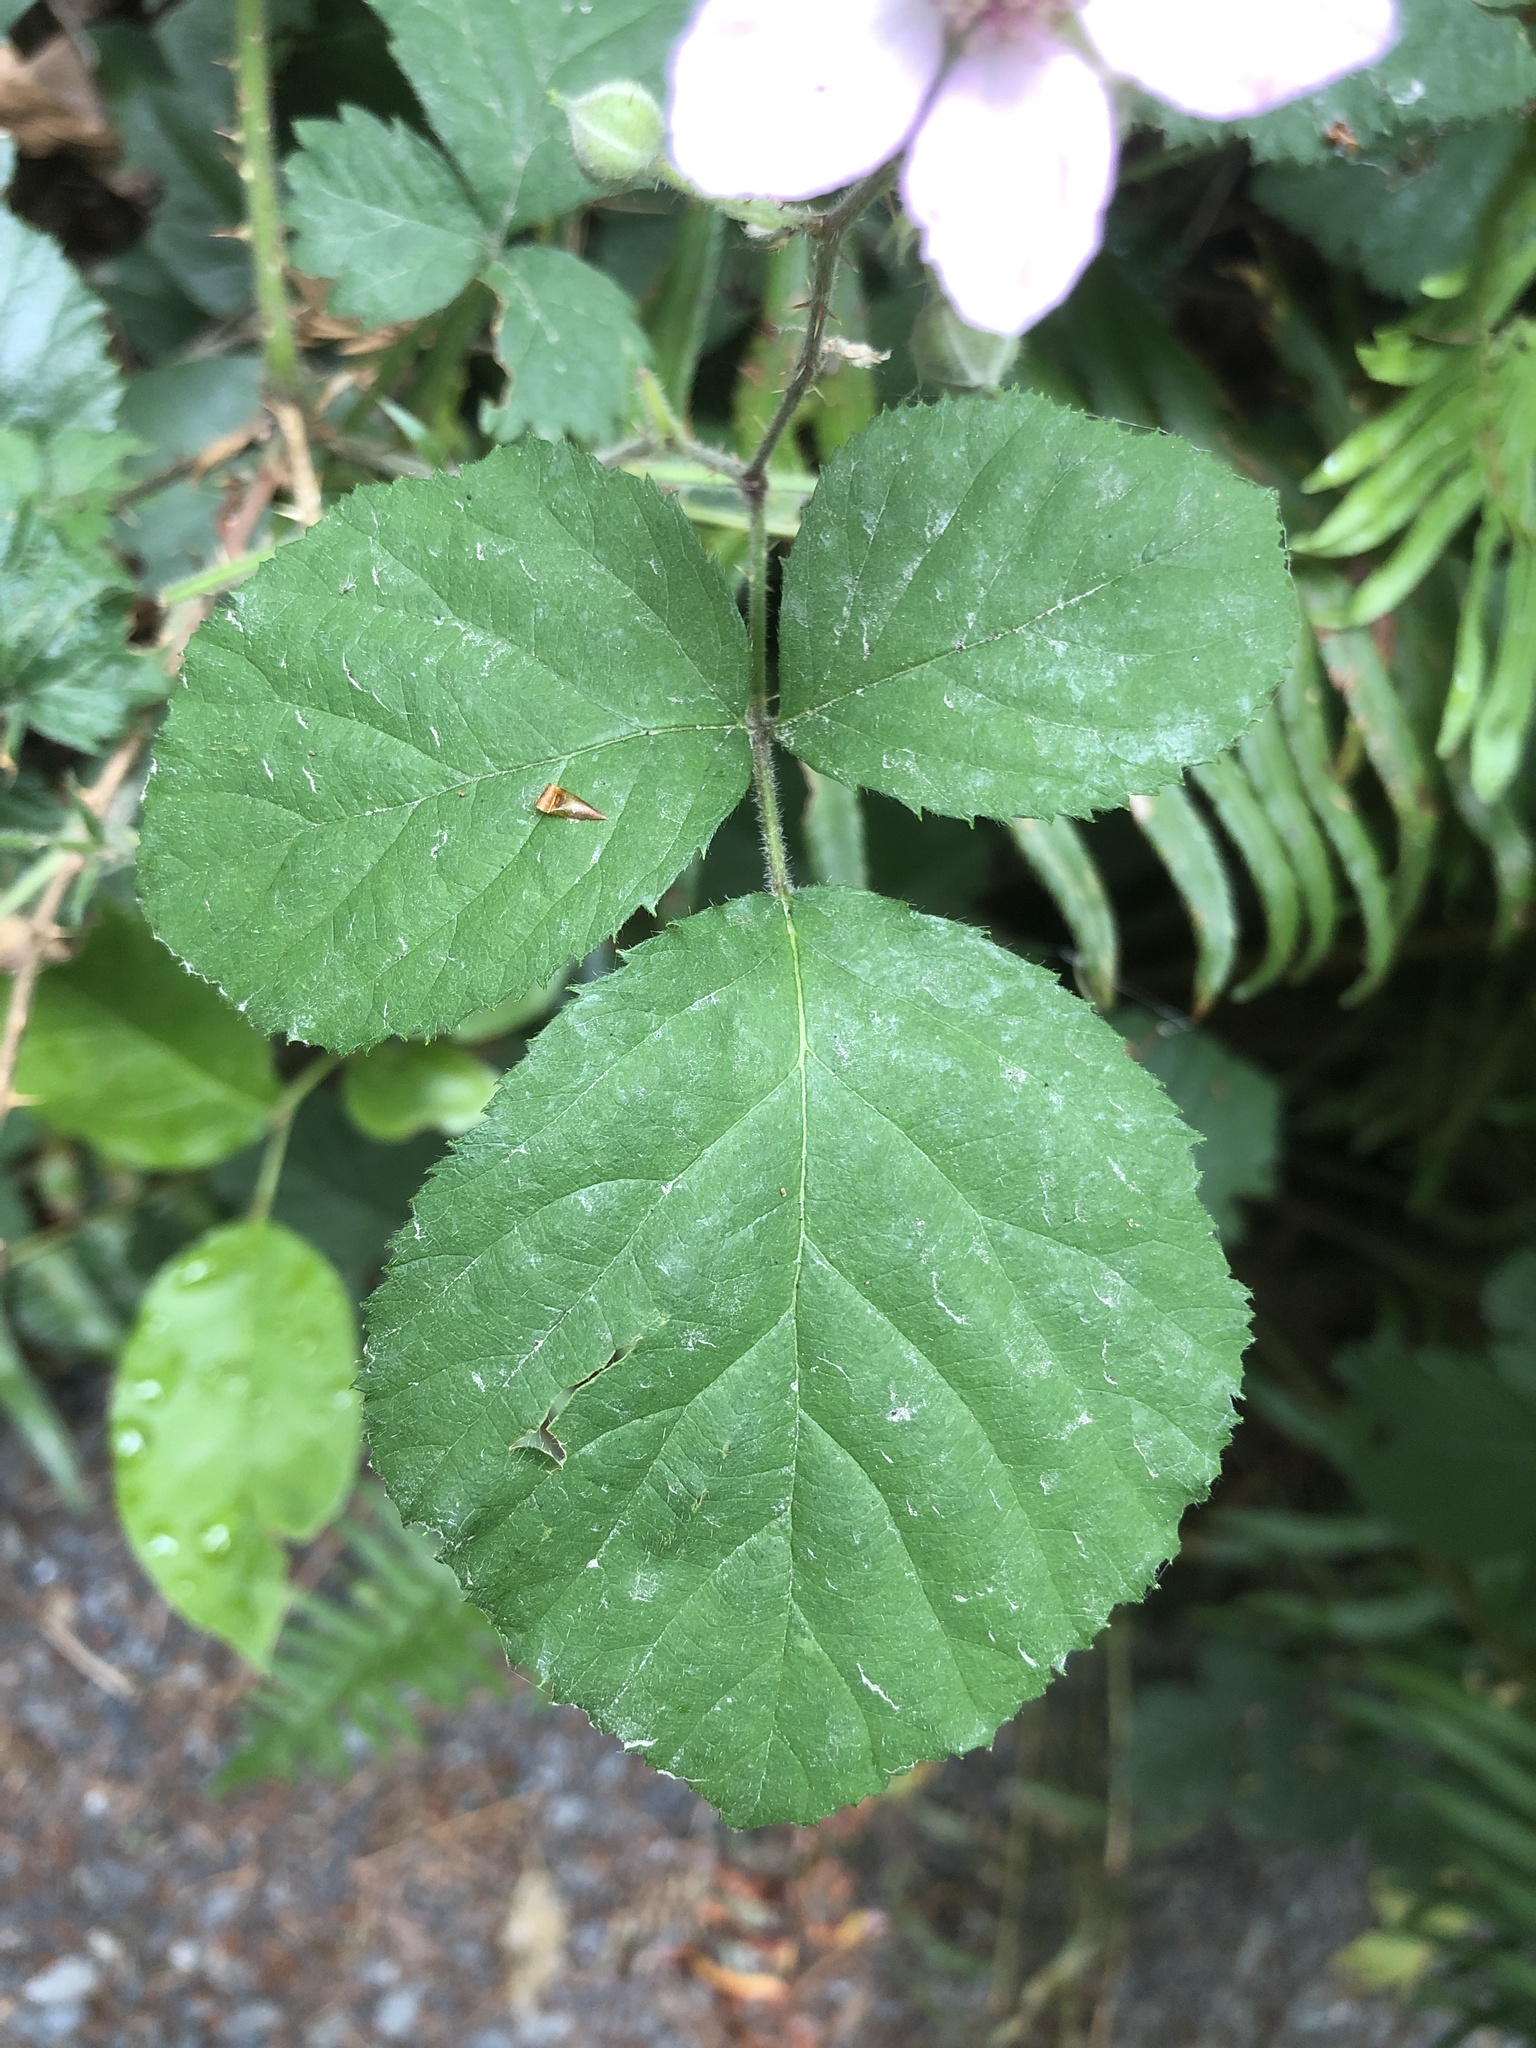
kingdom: Plantae
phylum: Tracheophyta
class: Magnoliopsida
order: Rosales
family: Rosaceae
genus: Rubus
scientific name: Rubus vestitus
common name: European blackberry
